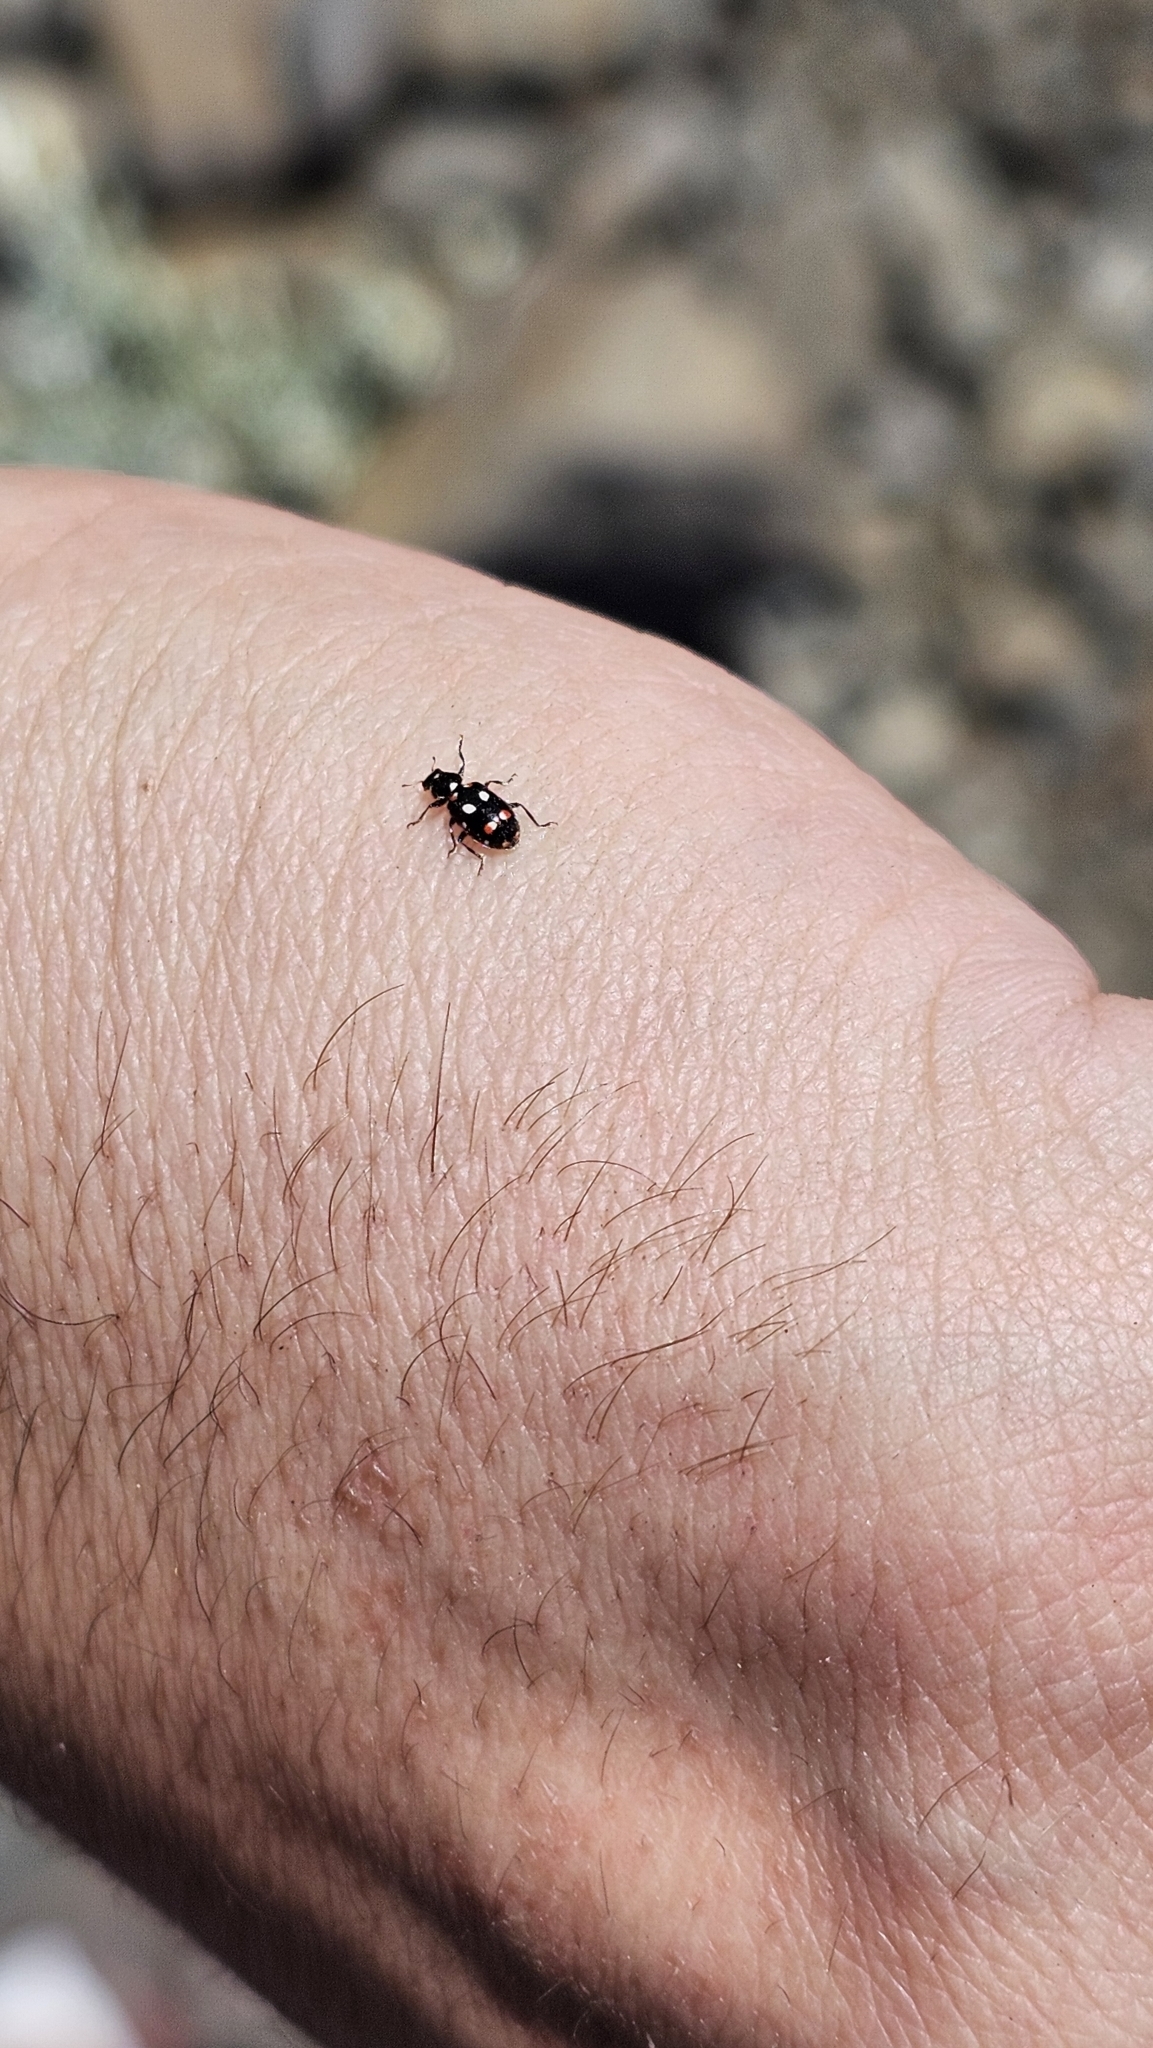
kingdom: Animalia
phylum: Arthropoda
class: Insecta
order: Coleoptera
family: Coccinellidae
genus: Eriopis
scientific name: Eriopis connexa
